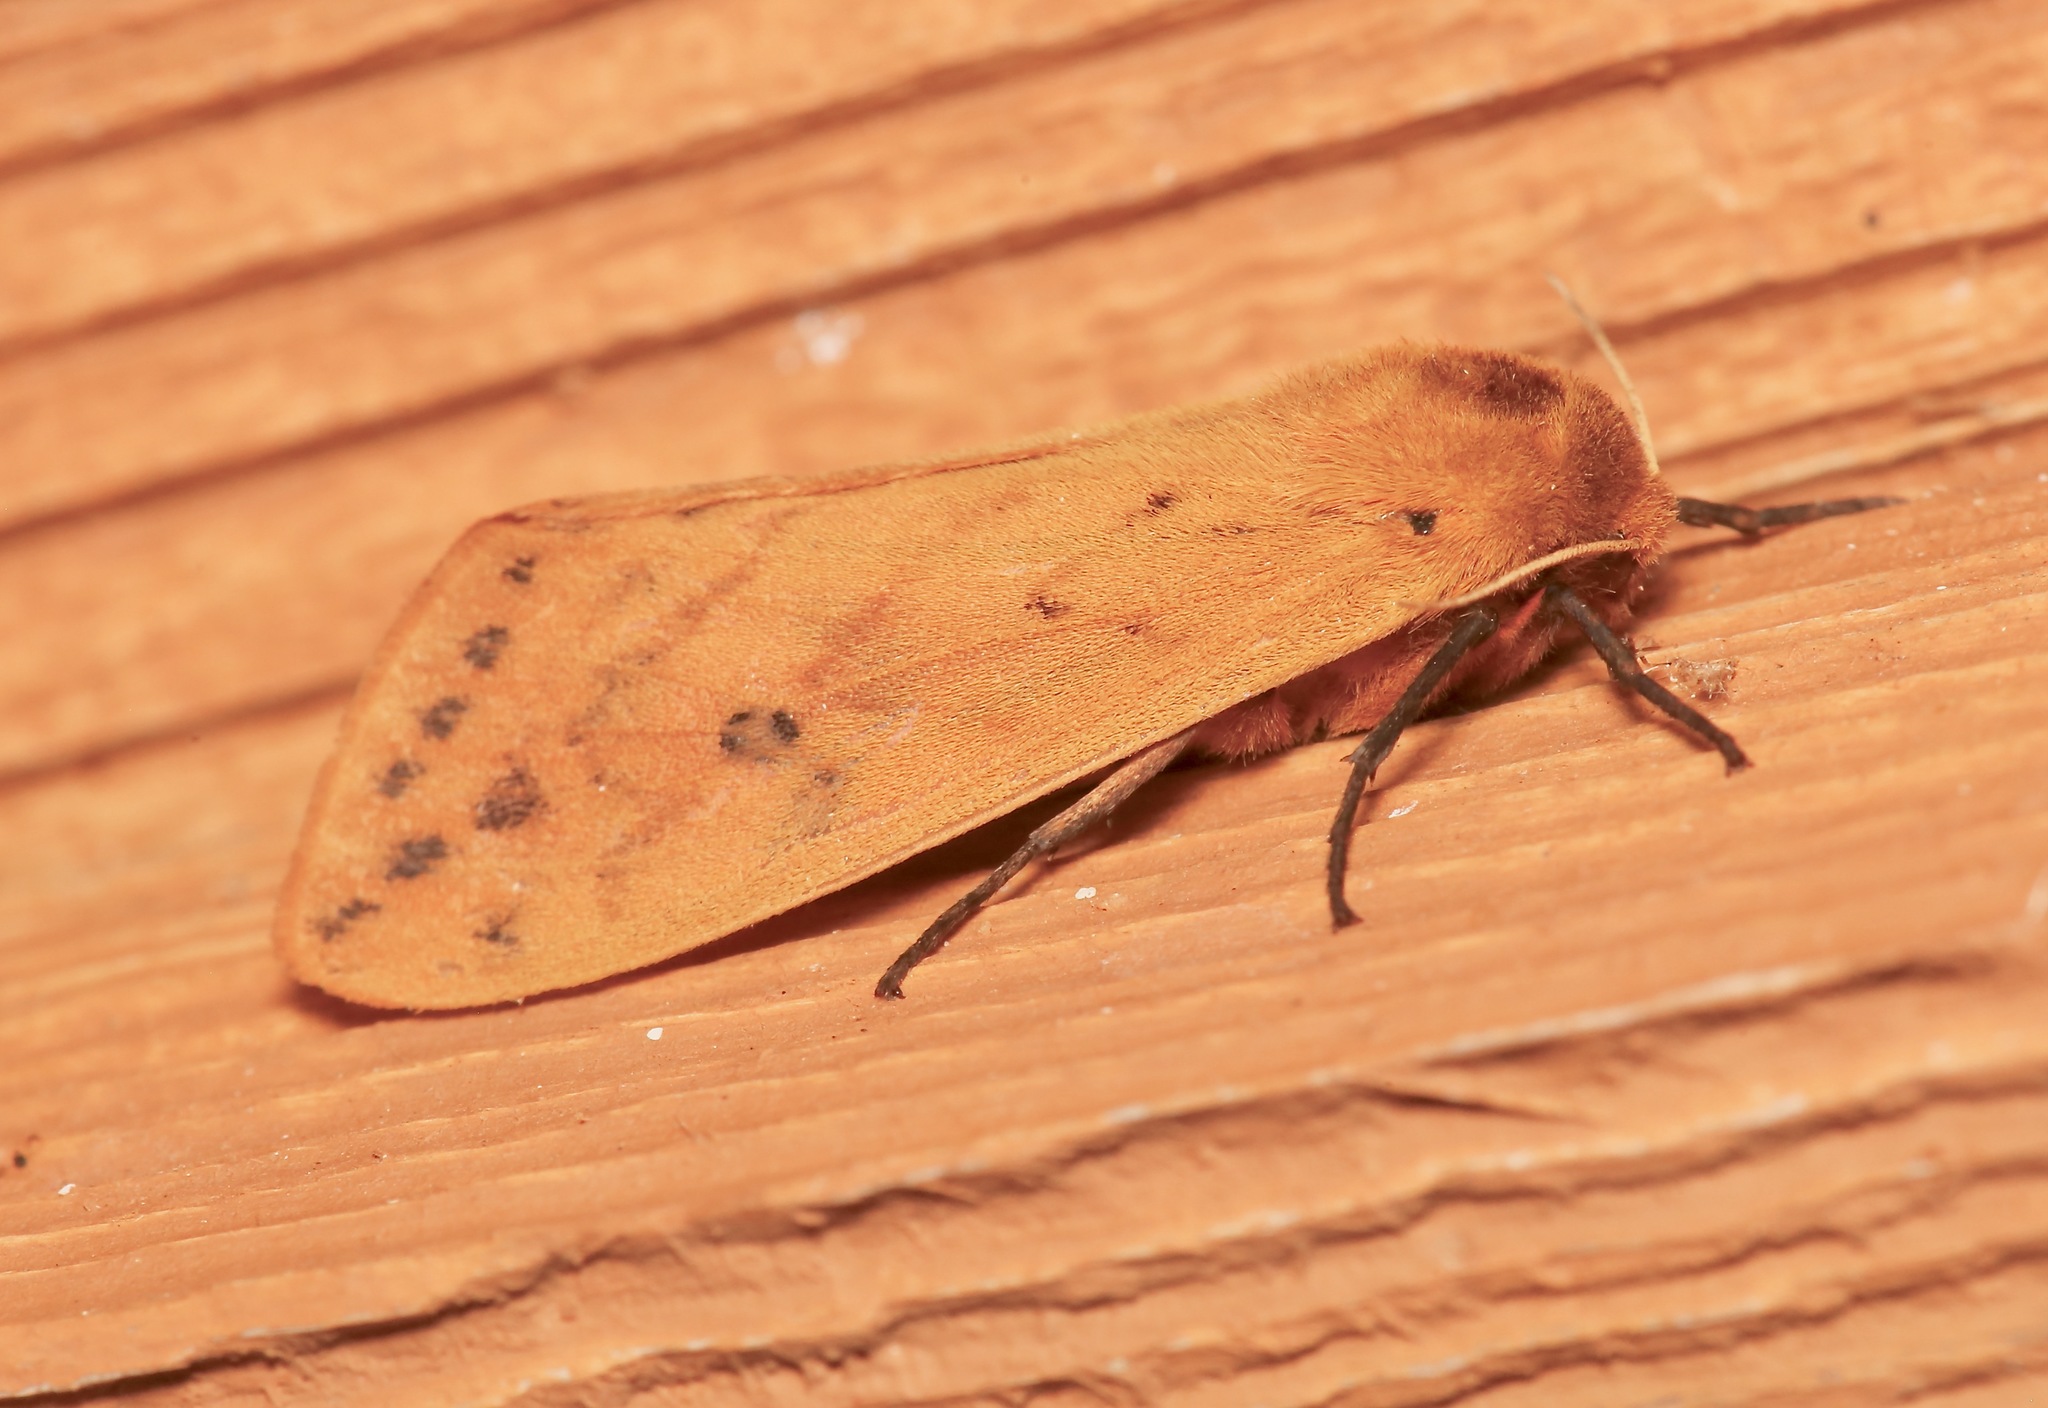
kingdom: Animalia
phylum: Arthropoda
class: Insecta
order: Lepidoptera
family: Erebidae
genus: Pyrrharctia
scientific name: Pyrrharctia isabella
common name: Isabella tiger moth
